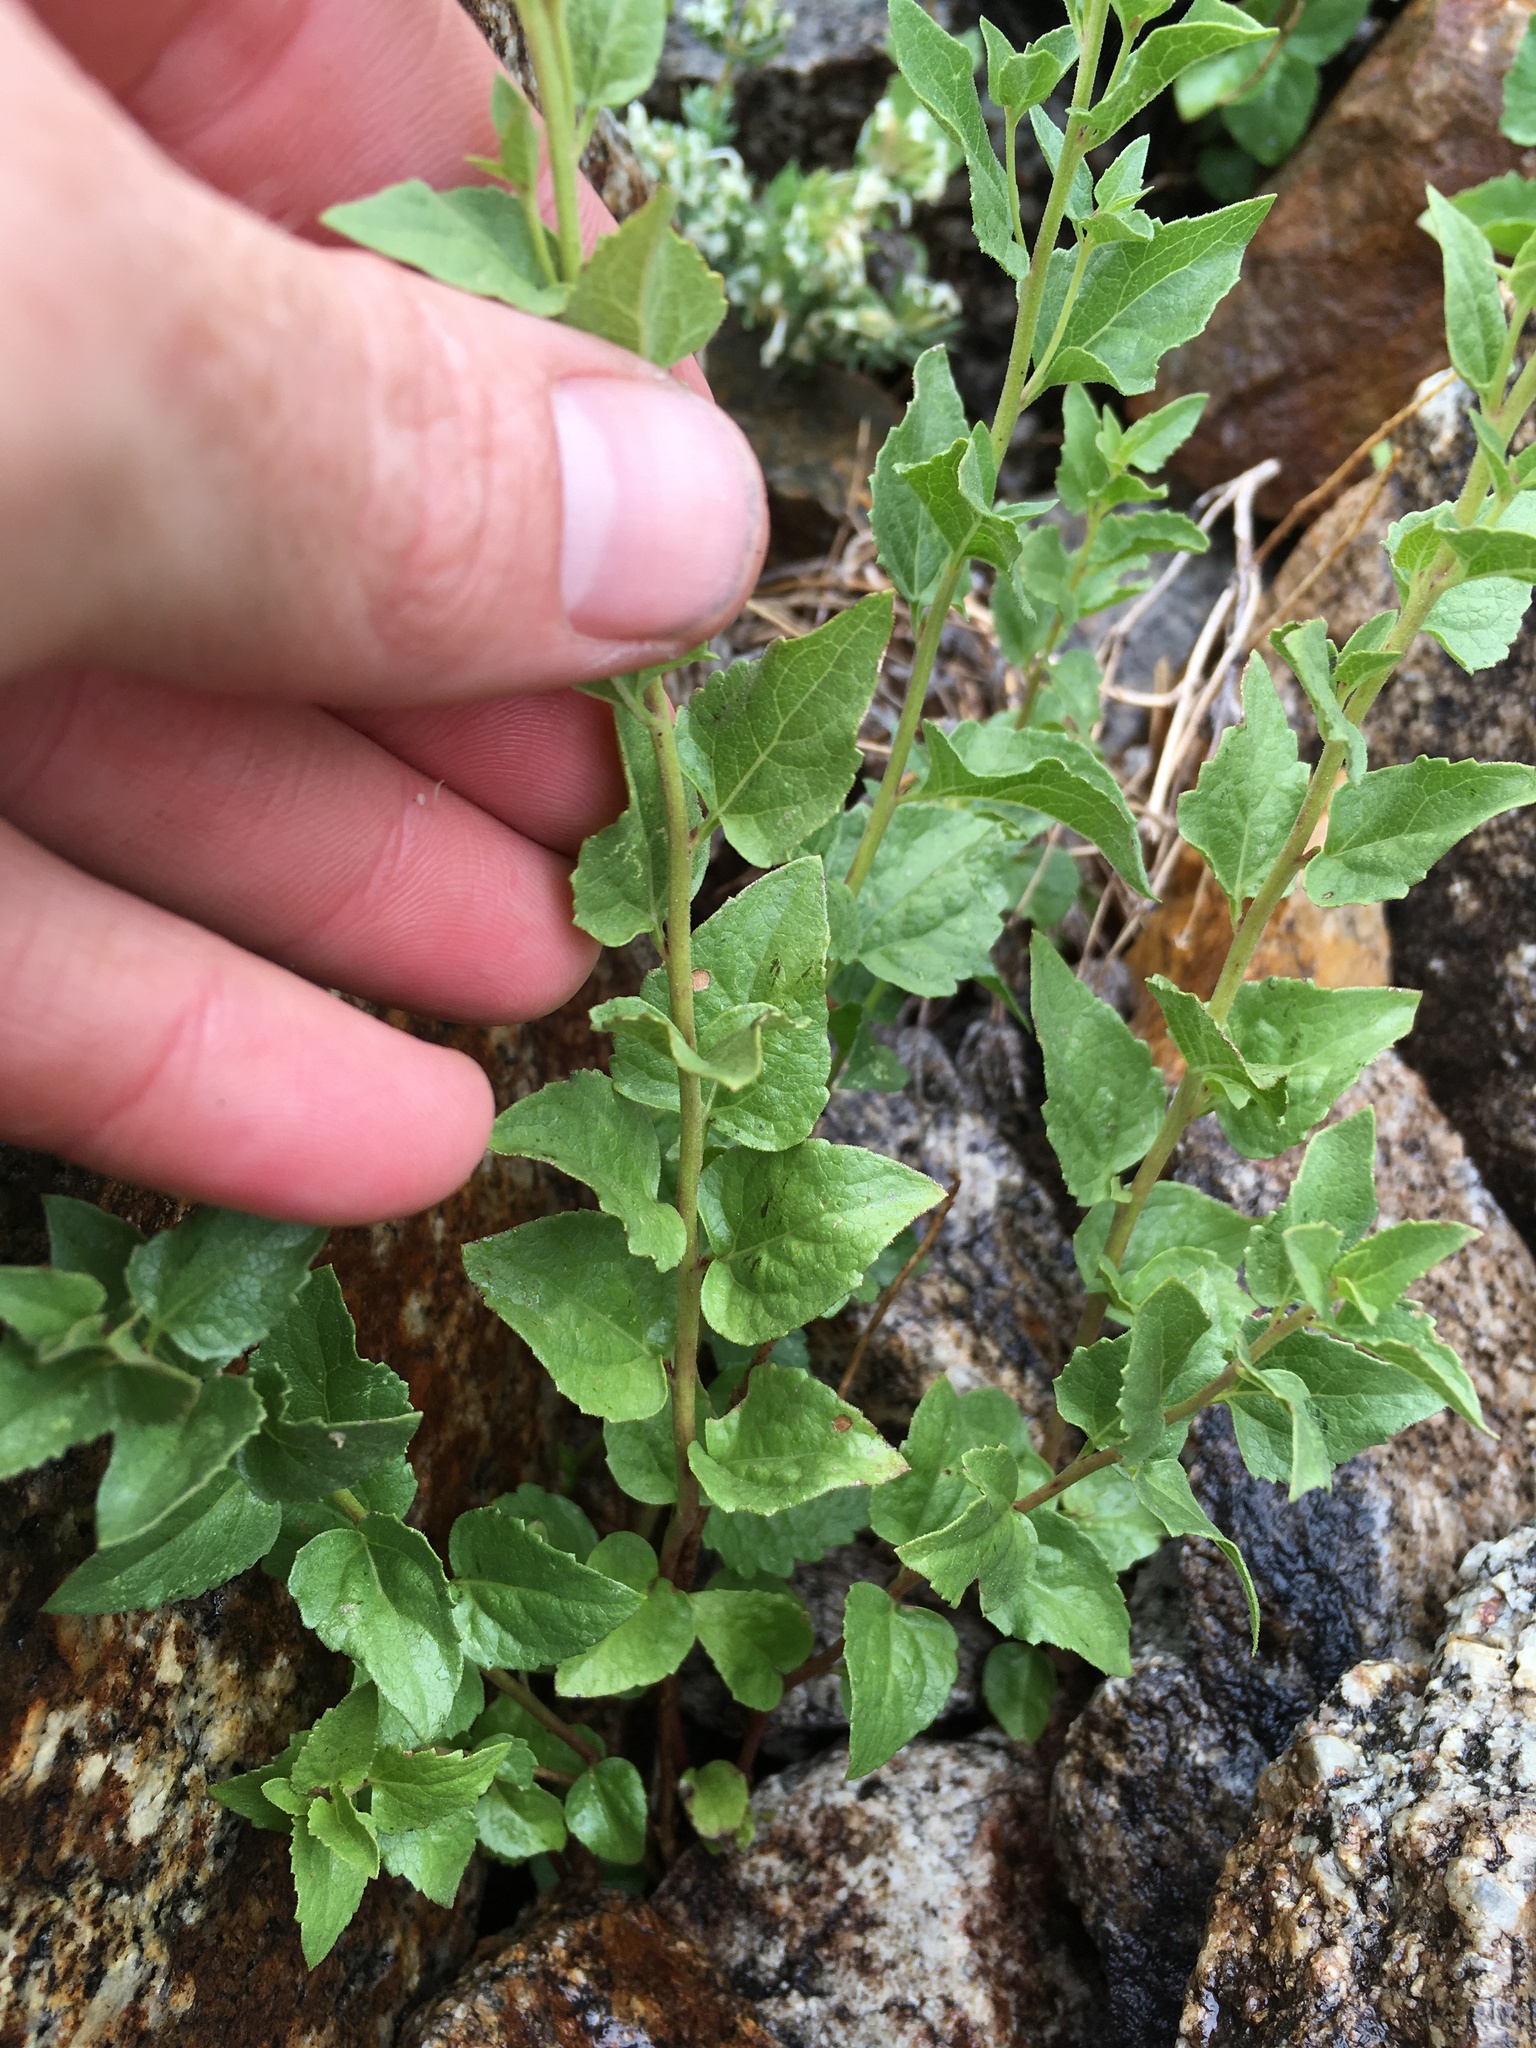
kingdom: Plantae
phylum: Tracheophyta
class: Magnoliopsida
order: Asterales
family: Asteraceae
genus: Ageratina
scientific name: Ageratina occidentalis
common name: Western snakeroot
